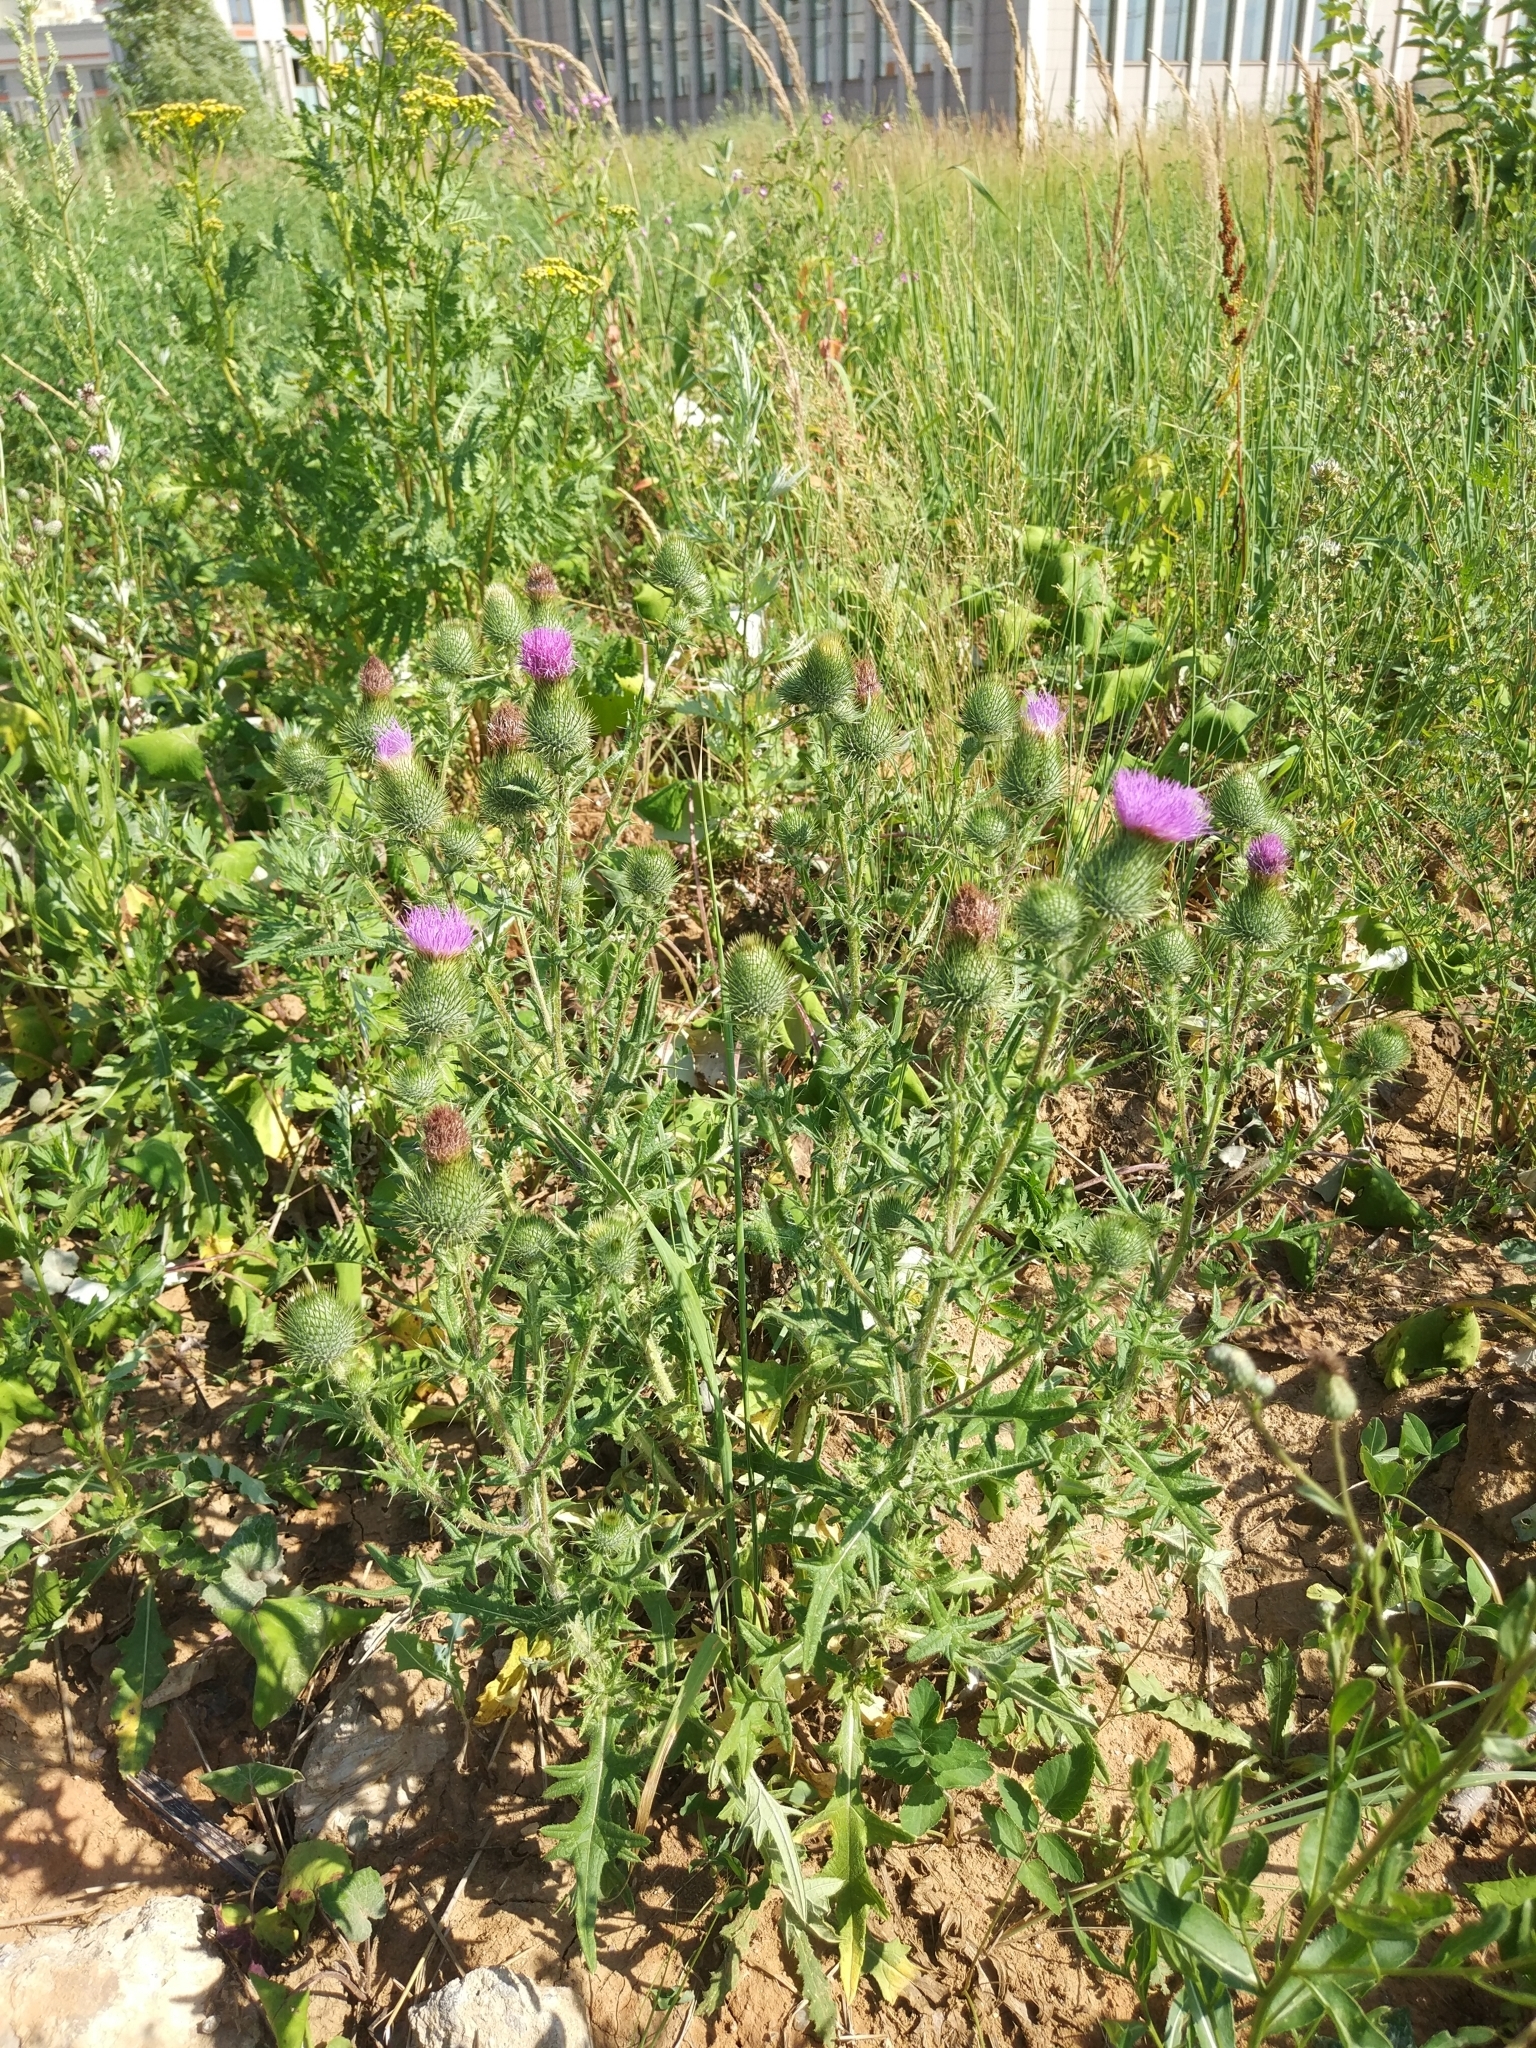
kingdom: Plantae
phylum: Tracheophyta
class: Magnoliopsida
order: Asterales
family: Asteraceae
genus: Cirsium
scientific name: Cirsium vulgare
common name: Bull thistle
